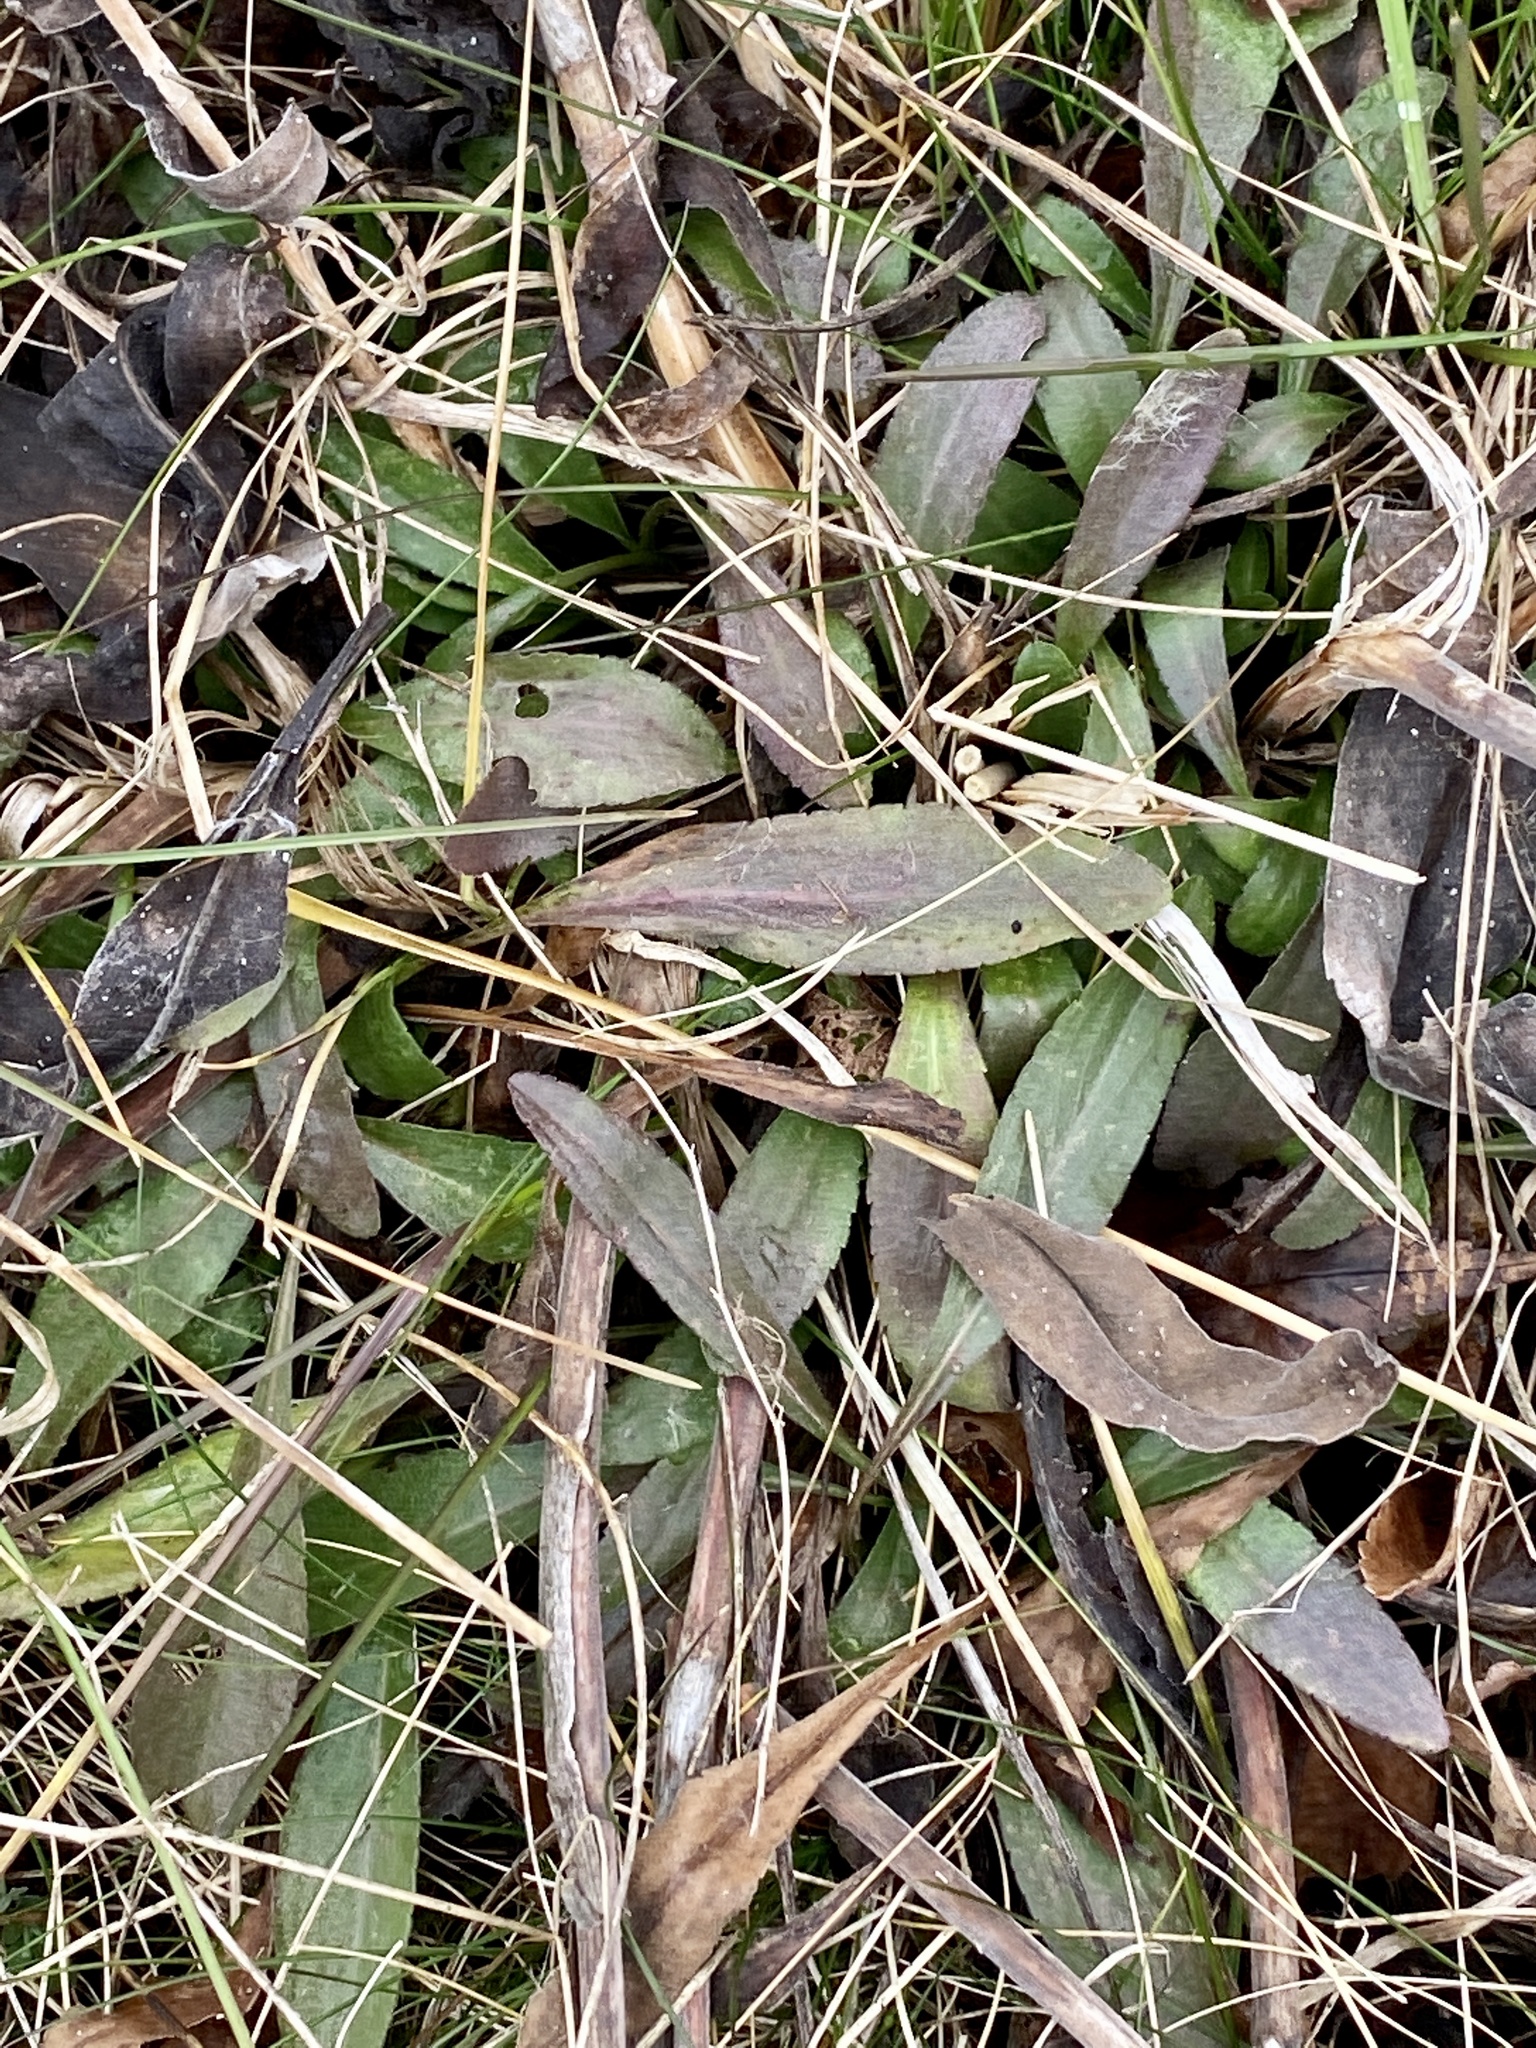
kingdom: Plantae
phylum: Tracheophyta
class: Magnoliopsida
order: Asterales
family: Asteraceae
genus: Solidago
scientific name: Solidago rigida
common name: Rigid goldenrod
